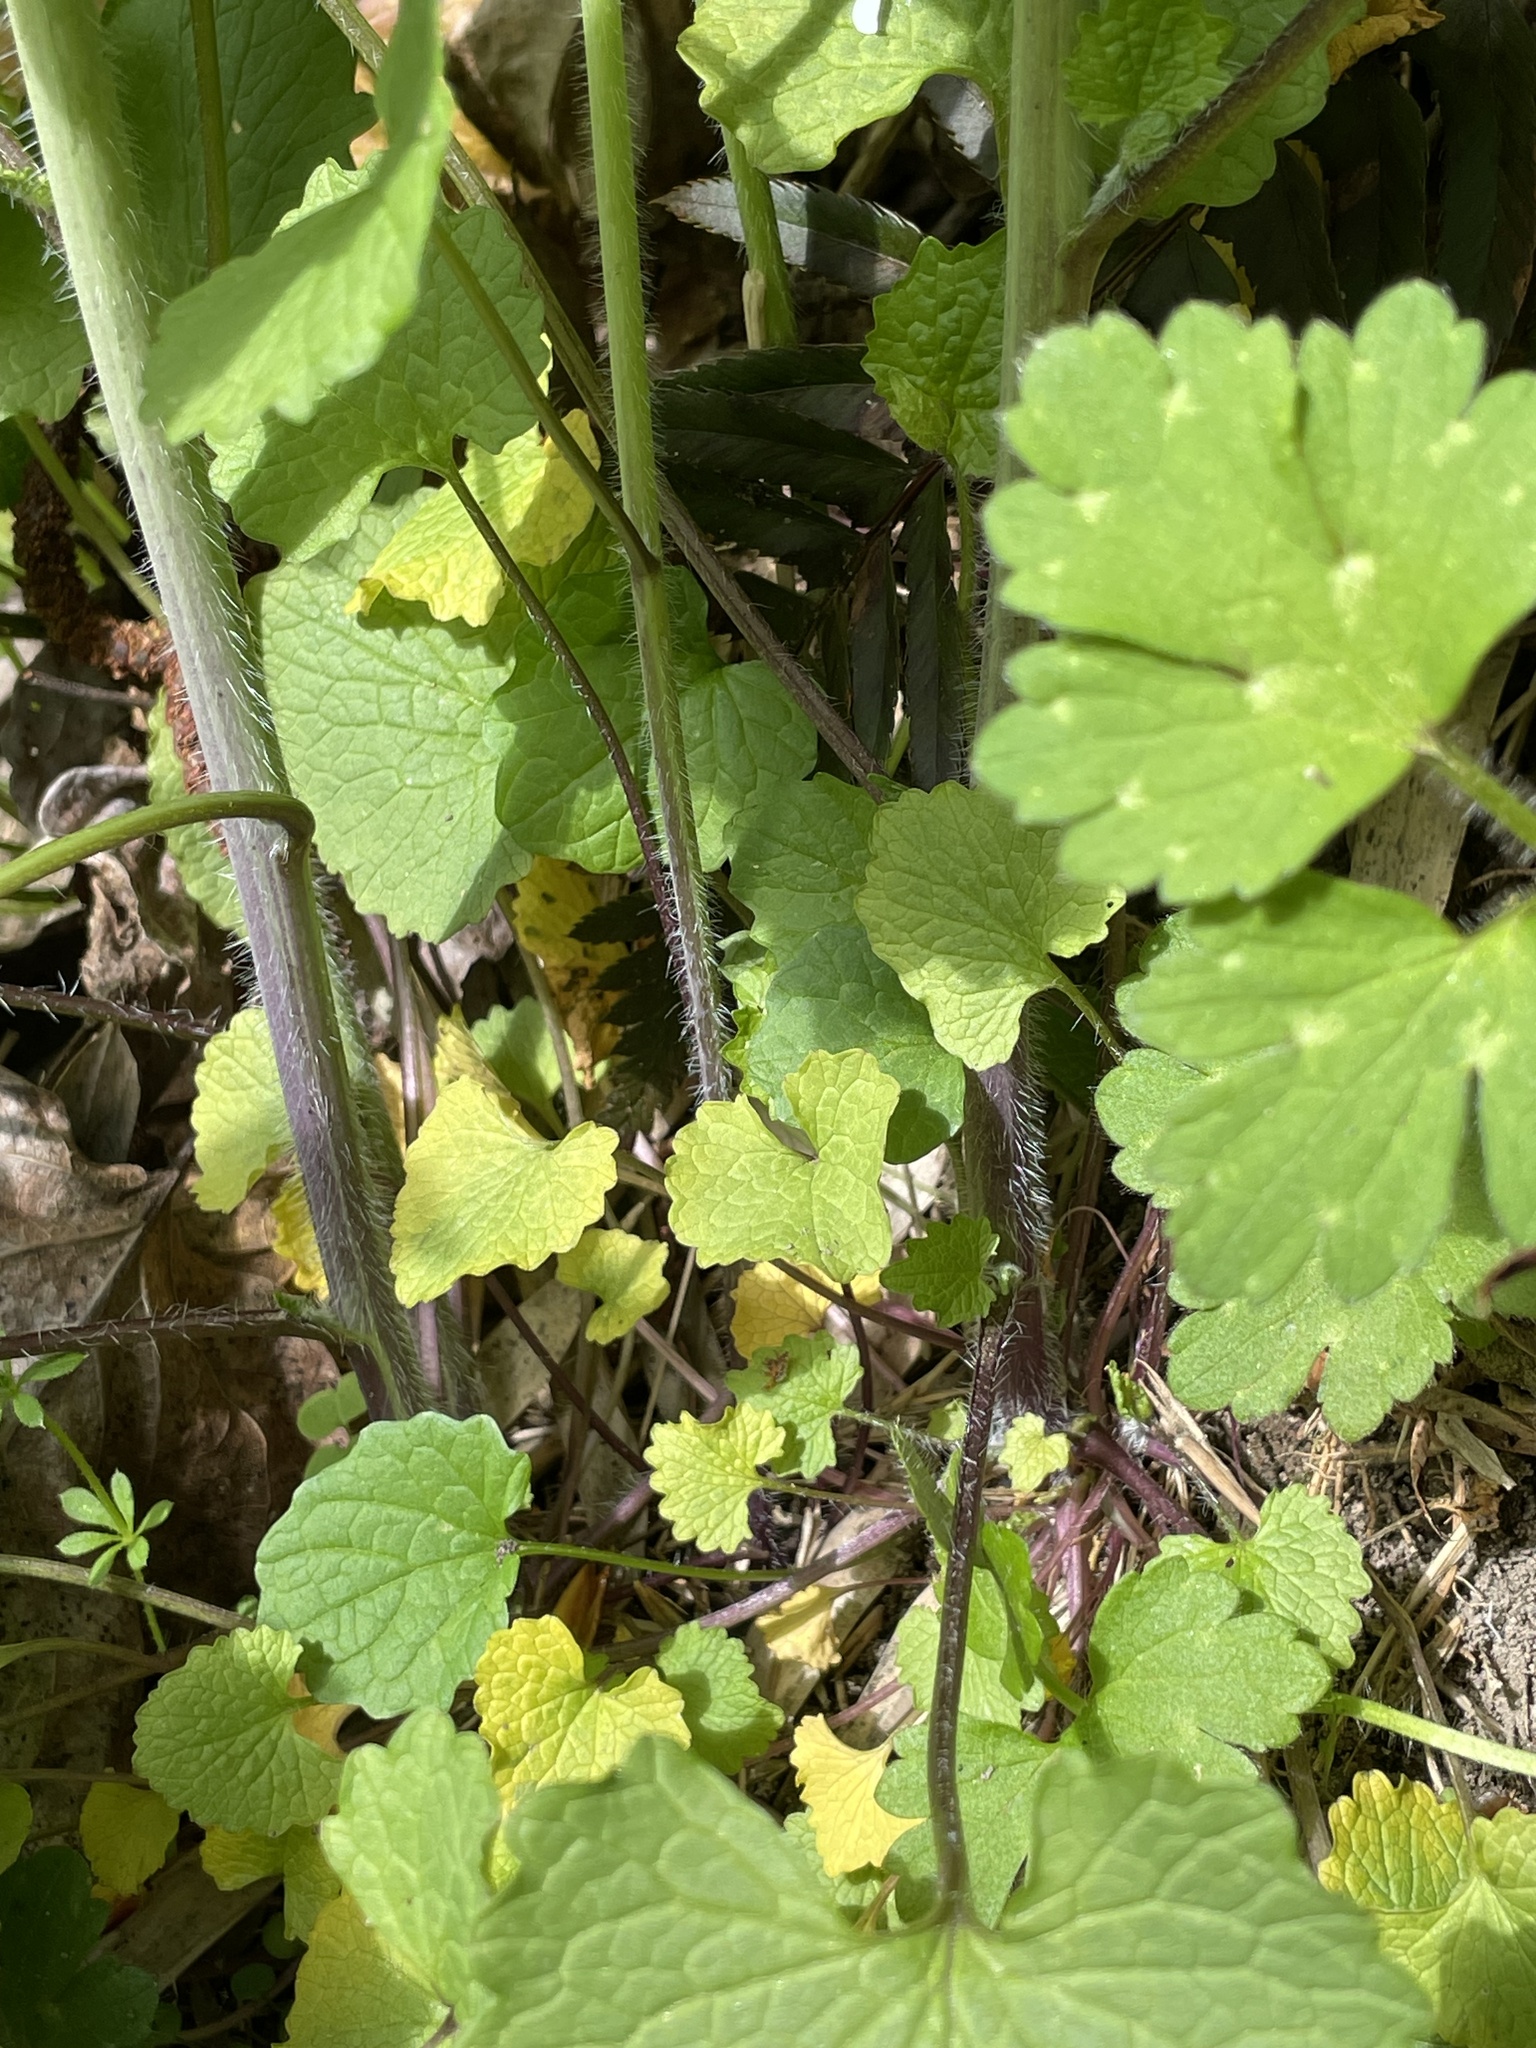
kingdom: Plantae
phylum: Tracheophyta
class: Magnoliopsida
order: Brassicales
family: Brassicaceae
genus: Alliaria
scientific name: Alliaria petiolata
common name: Garlic mustard
